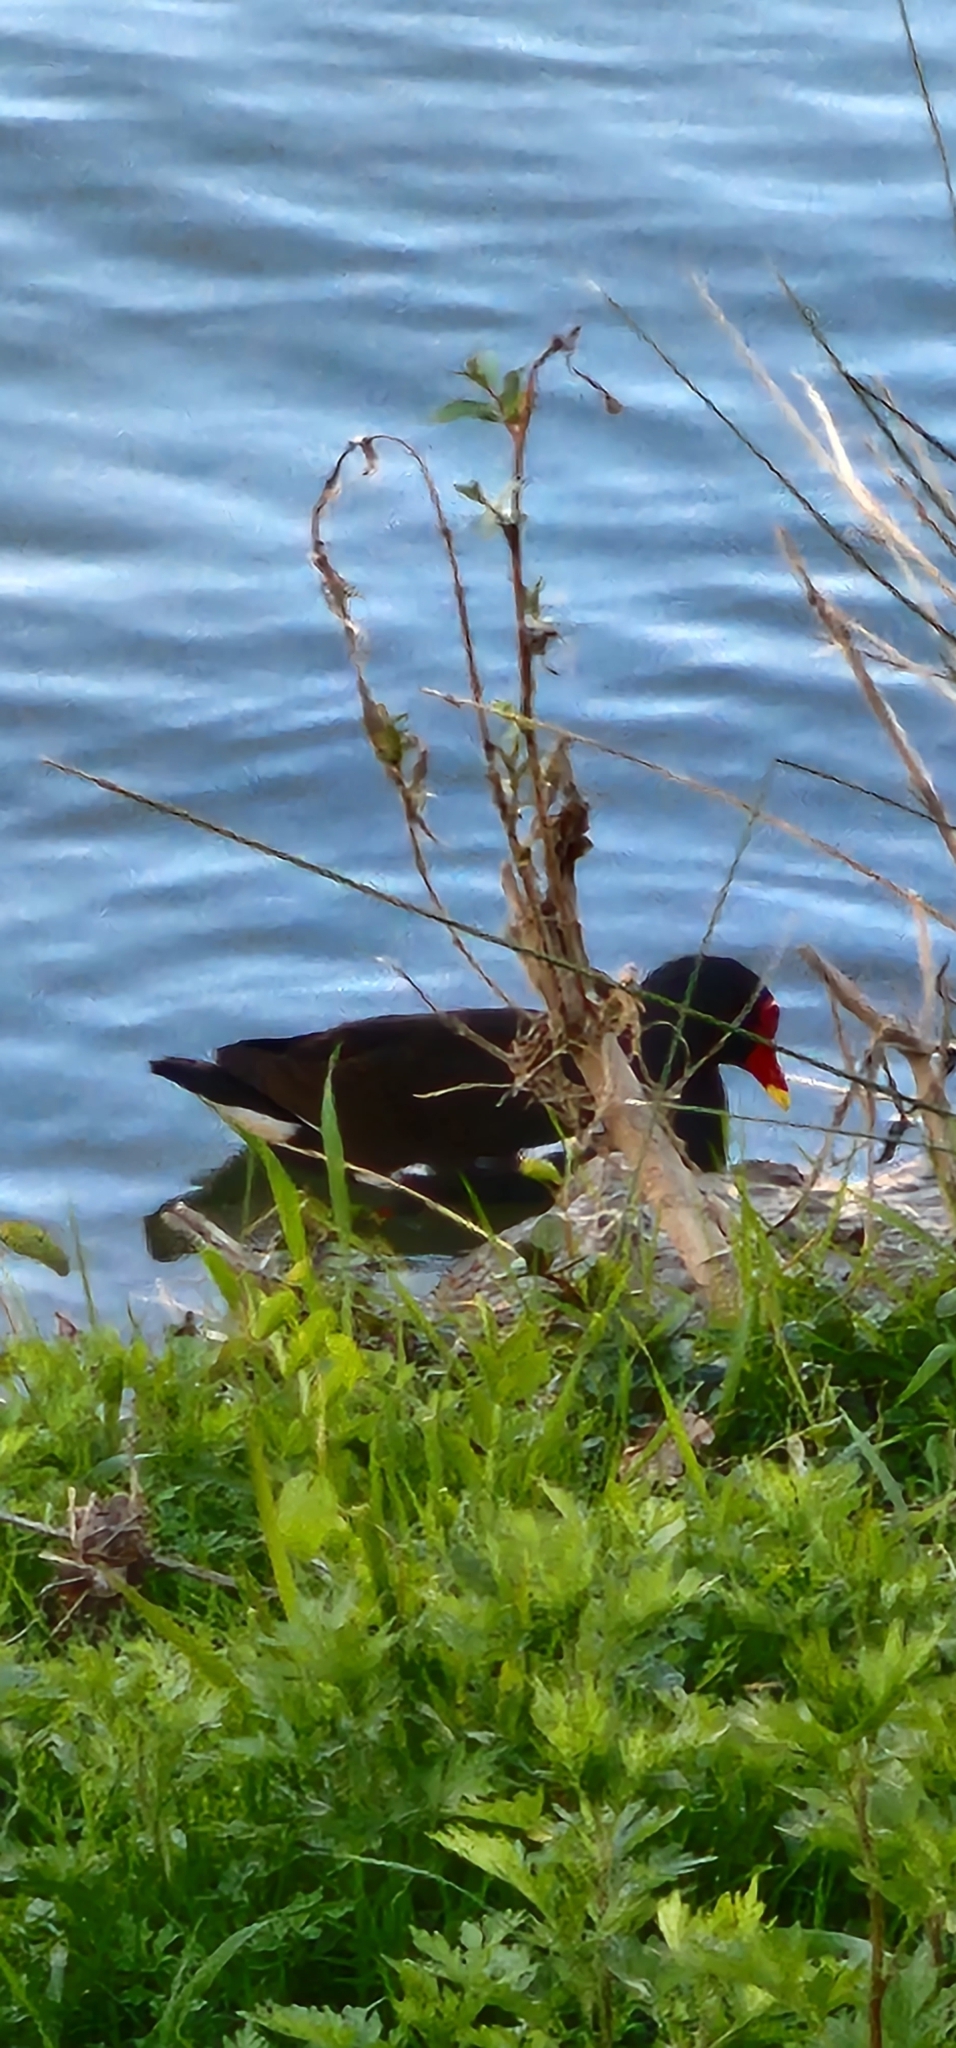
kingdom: Animalia
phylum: Chordata
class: Aves
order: Gruiformes
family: Rallidae
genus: Gallinula
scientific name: Gallinula chloropus
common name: Common moorhen
